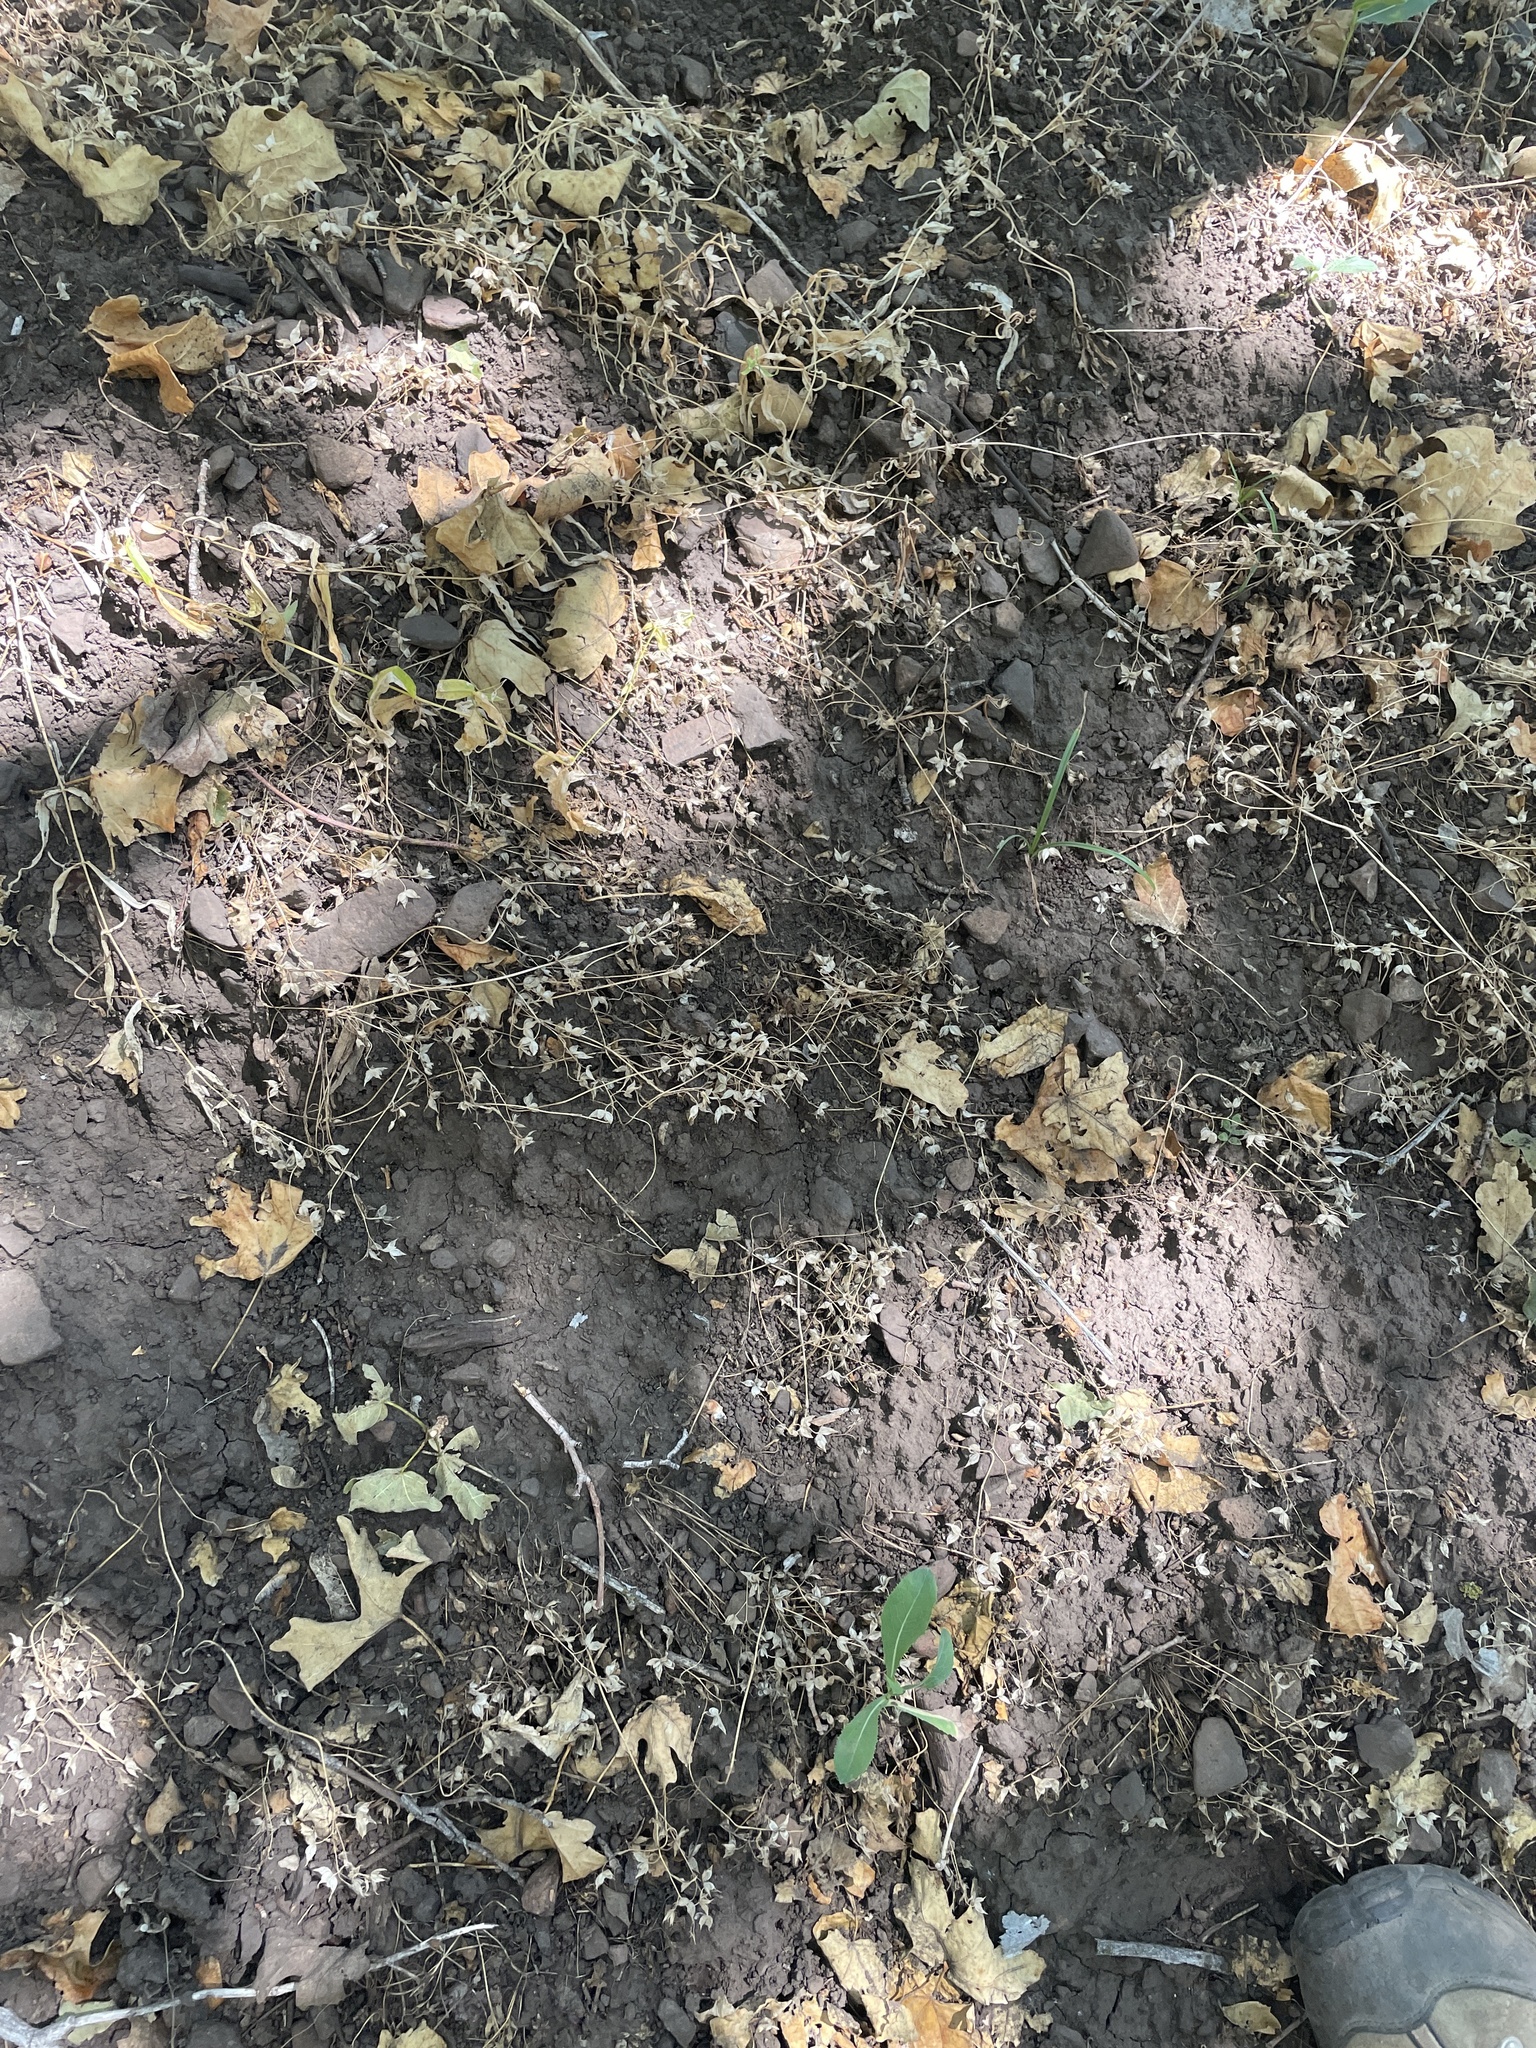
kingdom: Plantae
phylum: Tracheophyta
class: Magnoliopsida
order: Lamiales
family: Plantaginaceae
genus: Veronica
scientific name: Veronica biloba
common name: Twolobe speedwell
